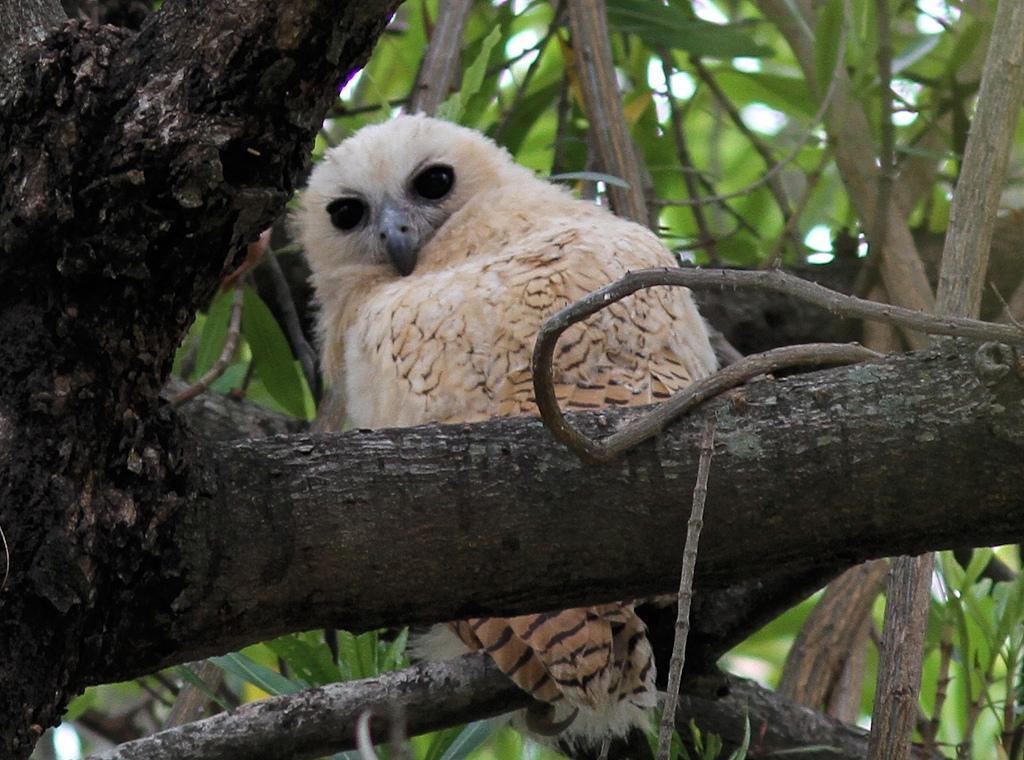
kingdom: Animalia
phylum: Chordata
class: Aves
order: Strigiformes
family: Strigidae
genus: Scotopelia
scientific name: Scotopelia peli
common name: Pel's fishing owl
